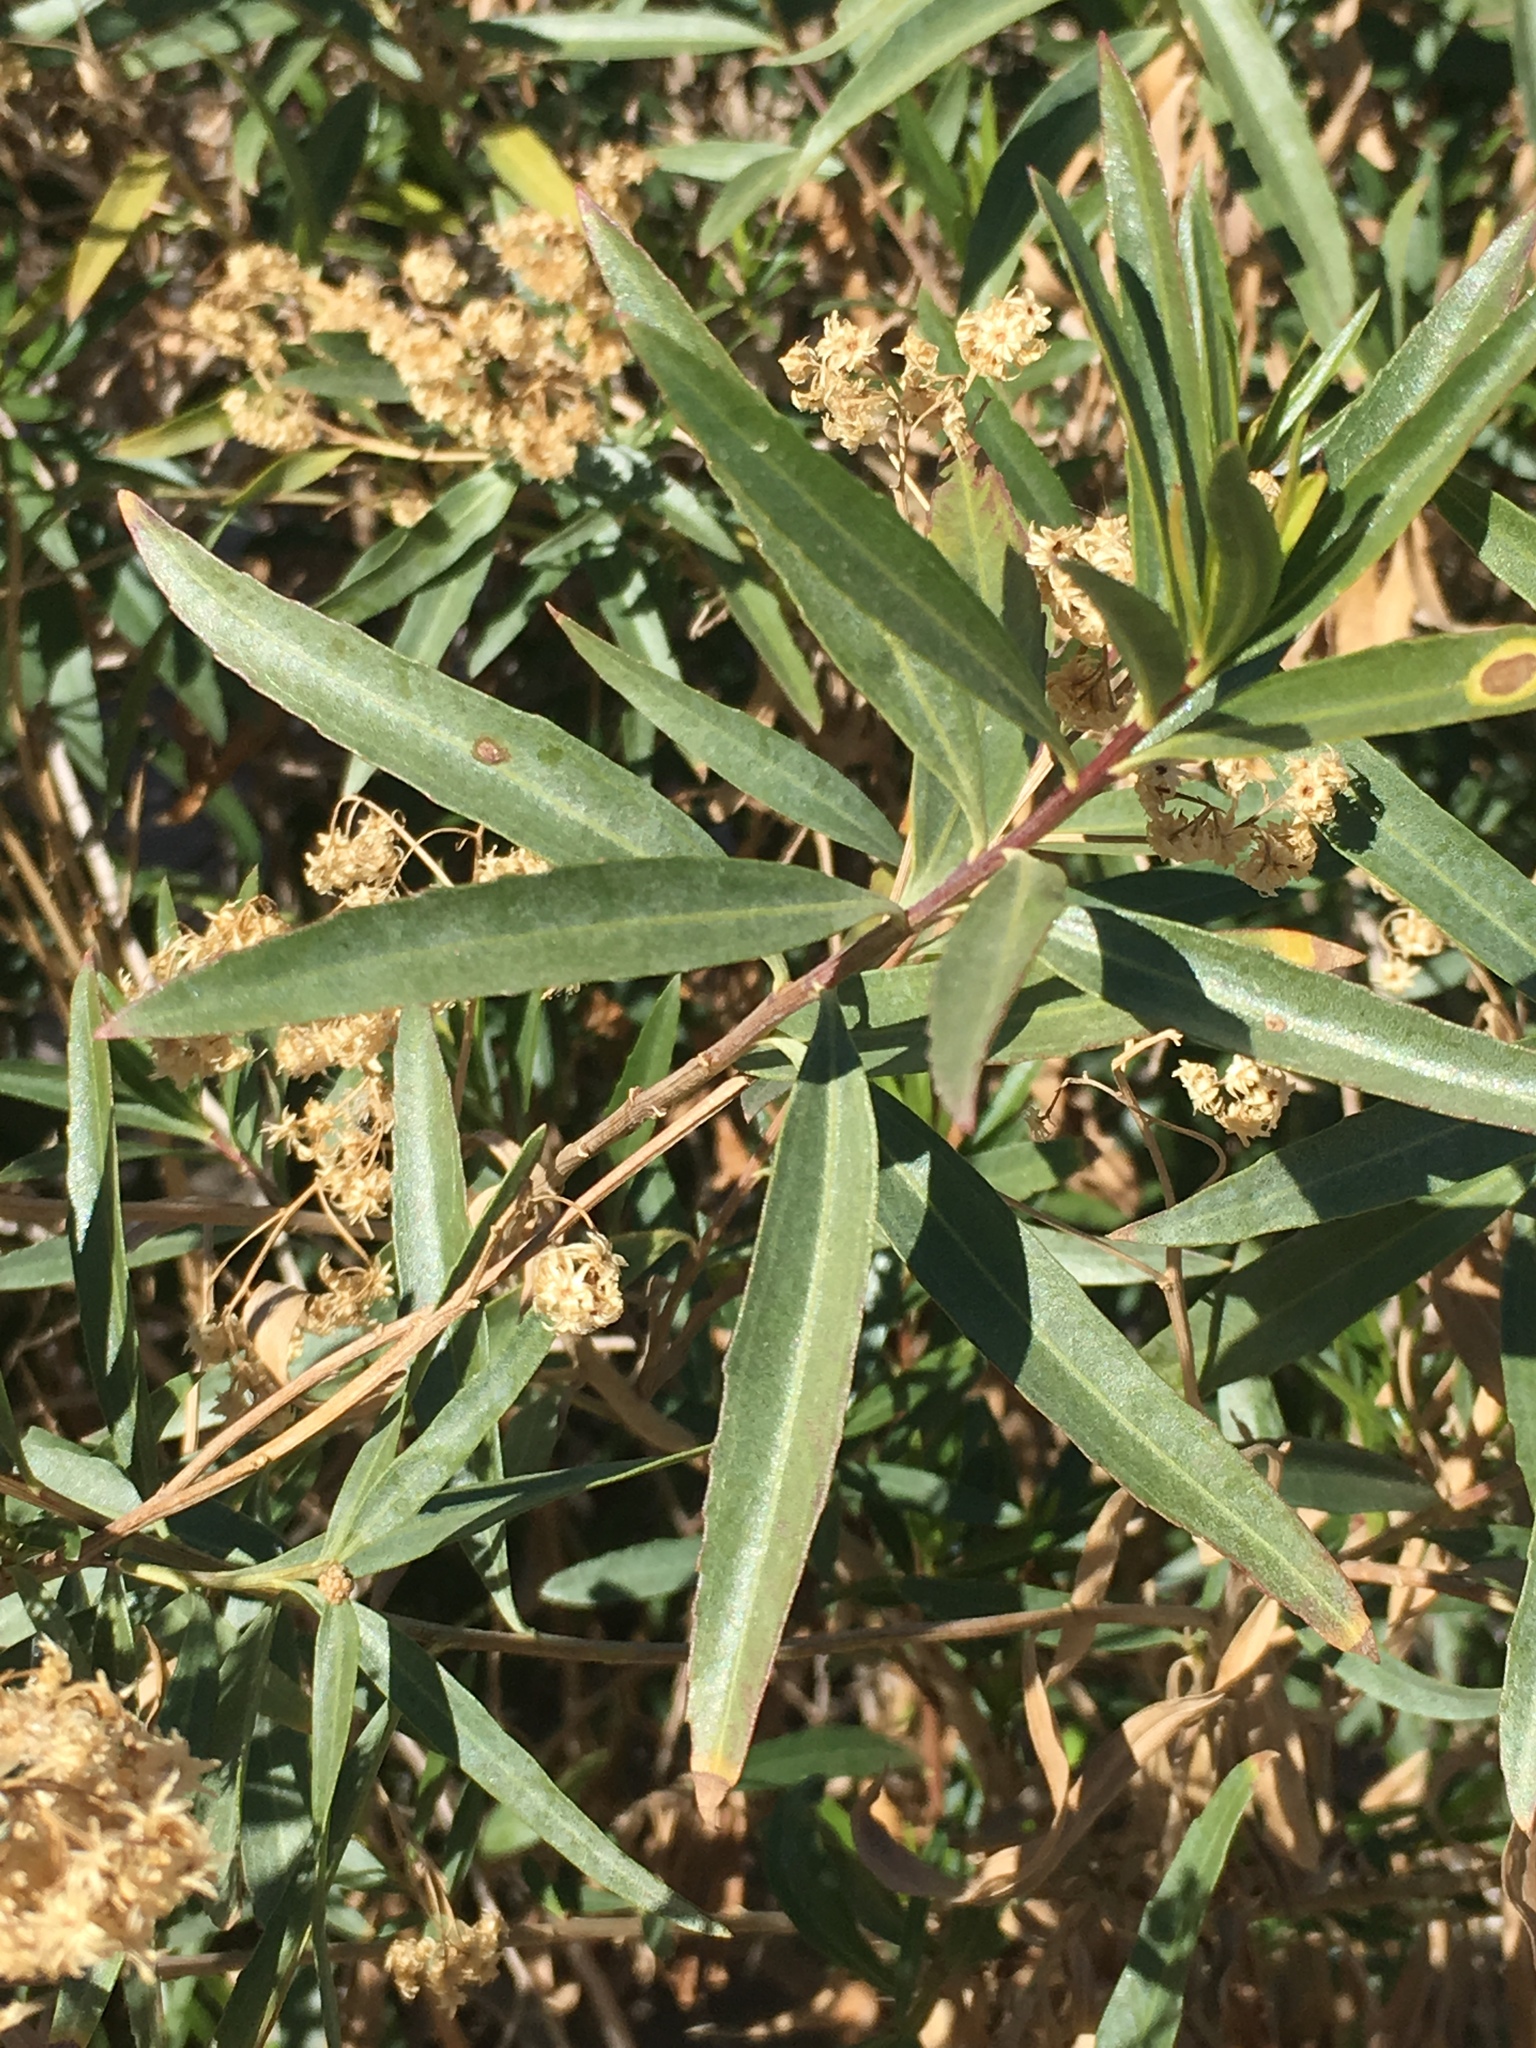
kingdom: Plantae
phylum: Tracheophyta
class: Magnoliopsida
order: Asterales
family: Asteraceae
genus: Baccharis
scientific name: Baccharis salicifolia
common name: Sticky baccharis
